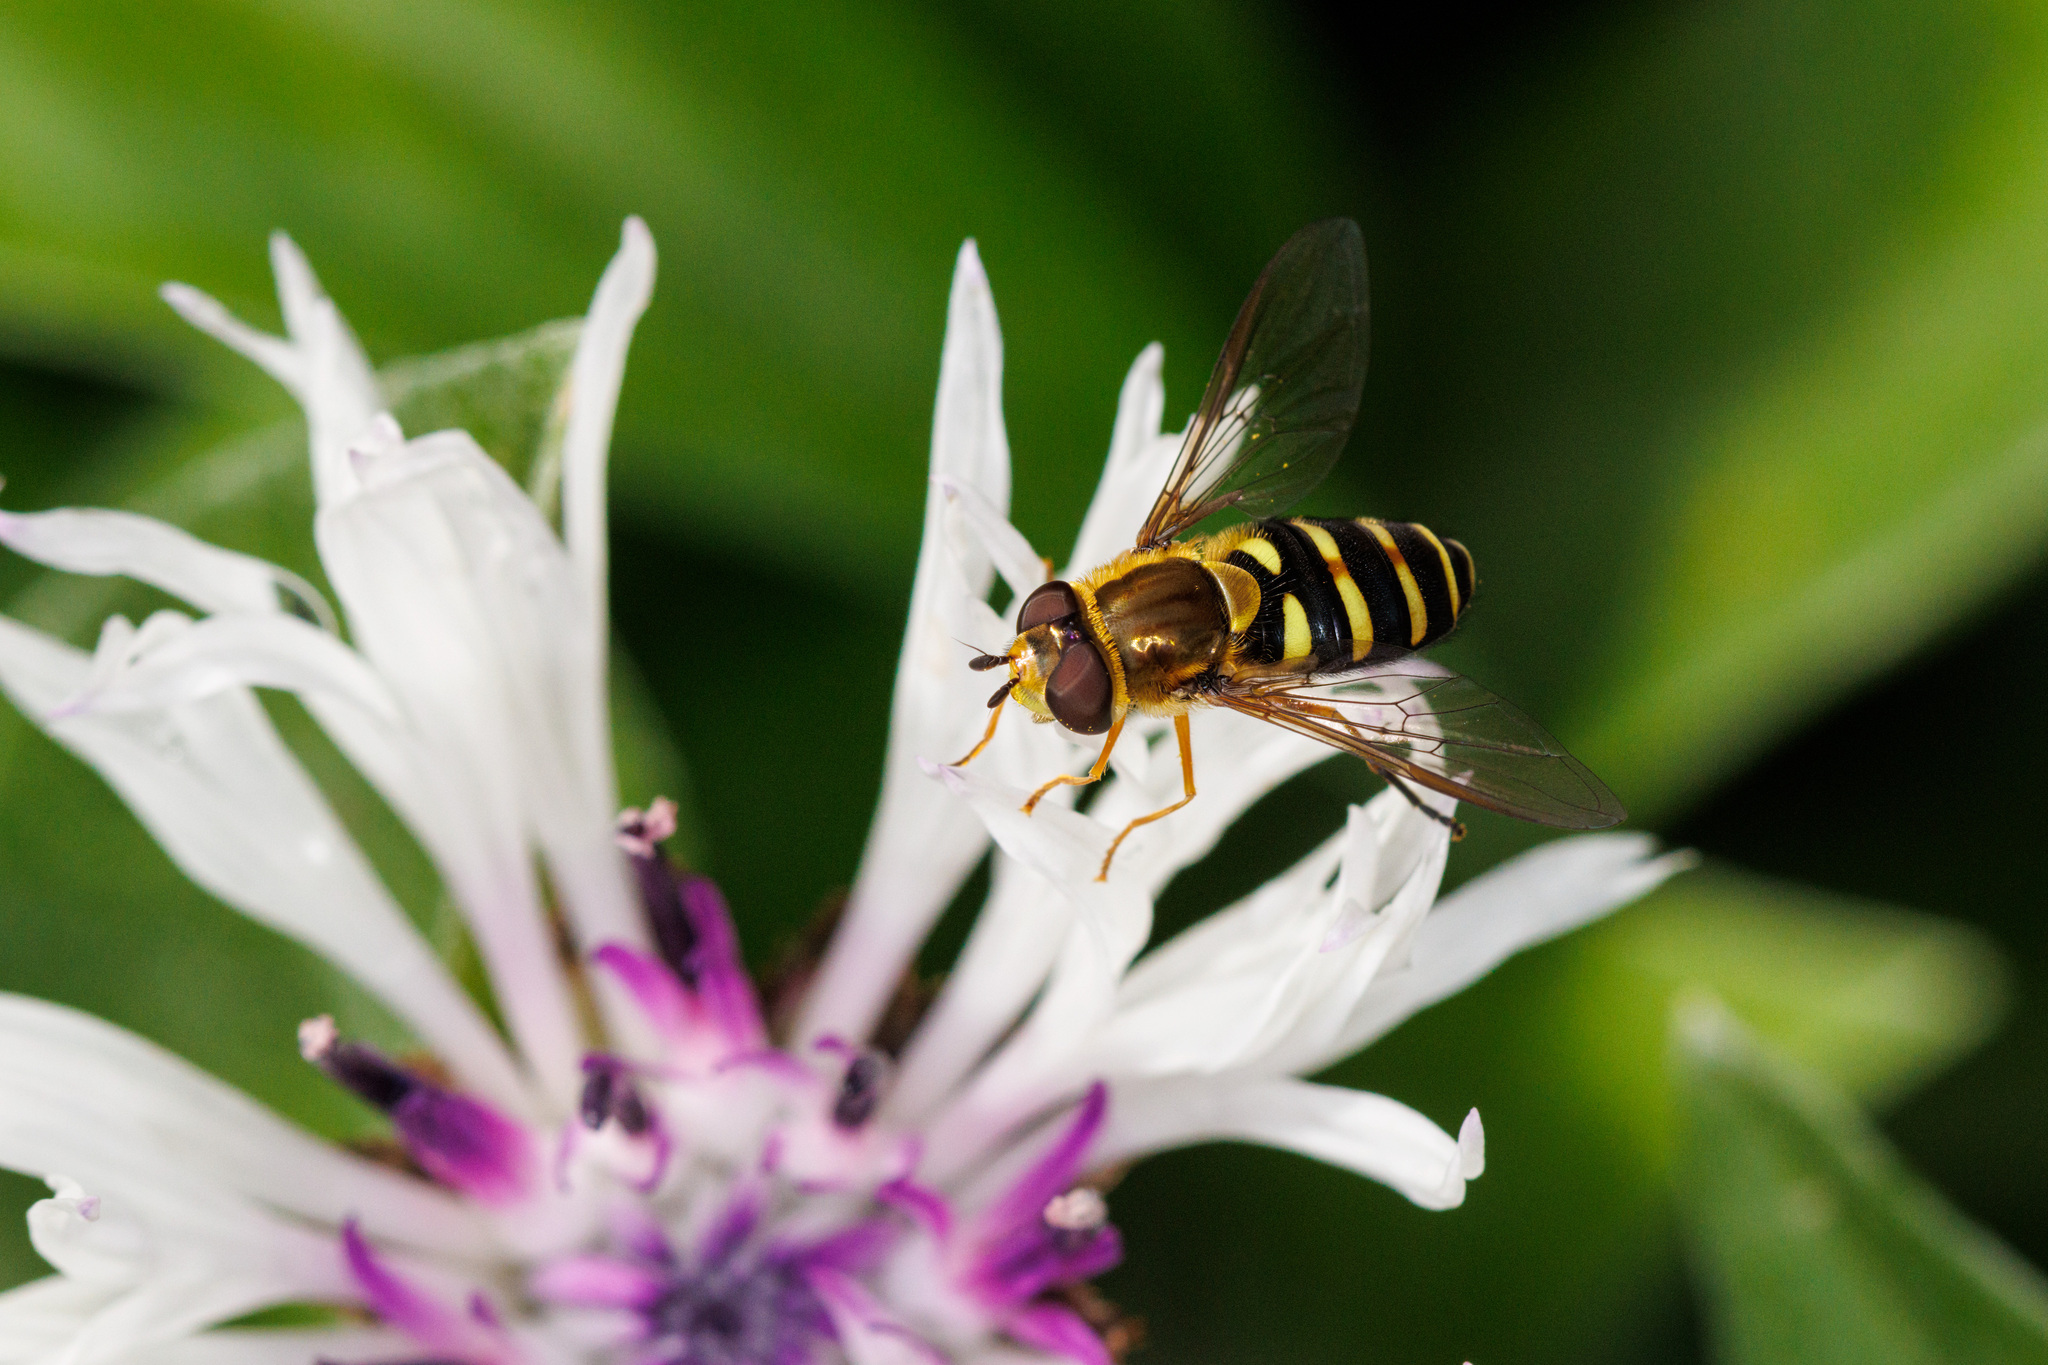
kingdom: Animalia
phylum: Arthropoda
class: Insecta
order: Diptera
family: Syrphidae
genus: Syrphus
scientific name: Syrphus opinator
